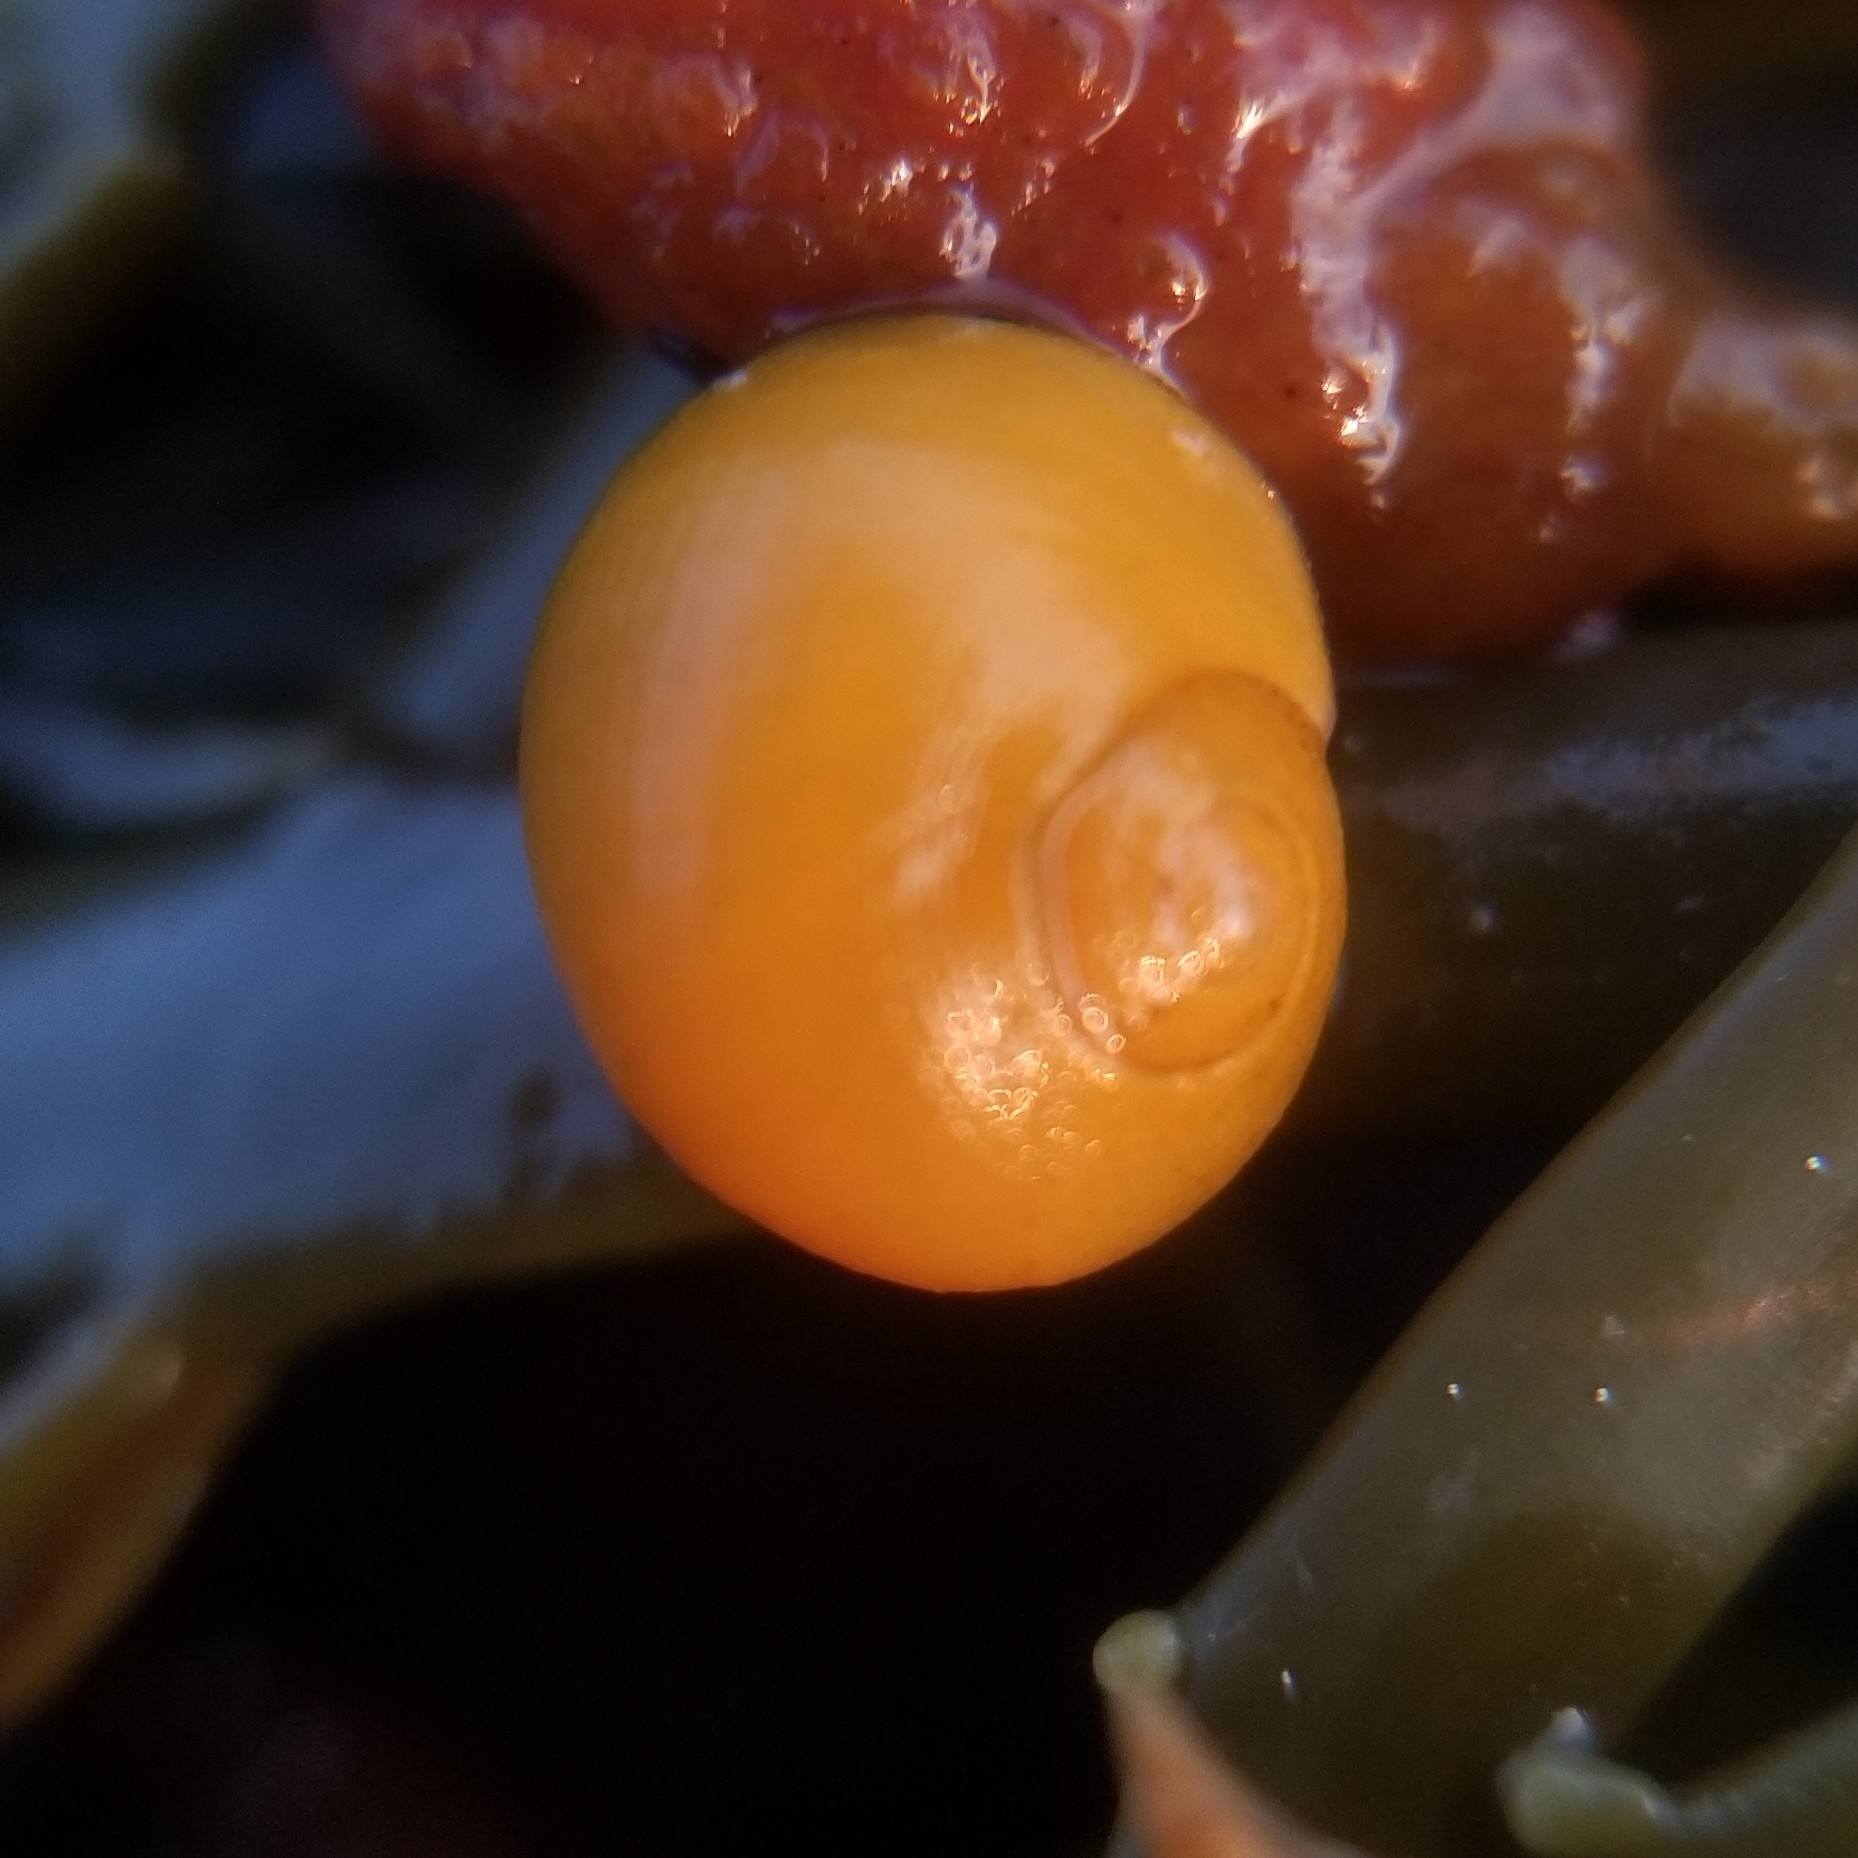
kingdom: Animalia
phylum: Mollusca
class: Gastropoda
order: Littorinimorpha
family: Littorinidae
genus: Littorina
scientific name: Littorina obtusata
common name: Flat periwinkle
